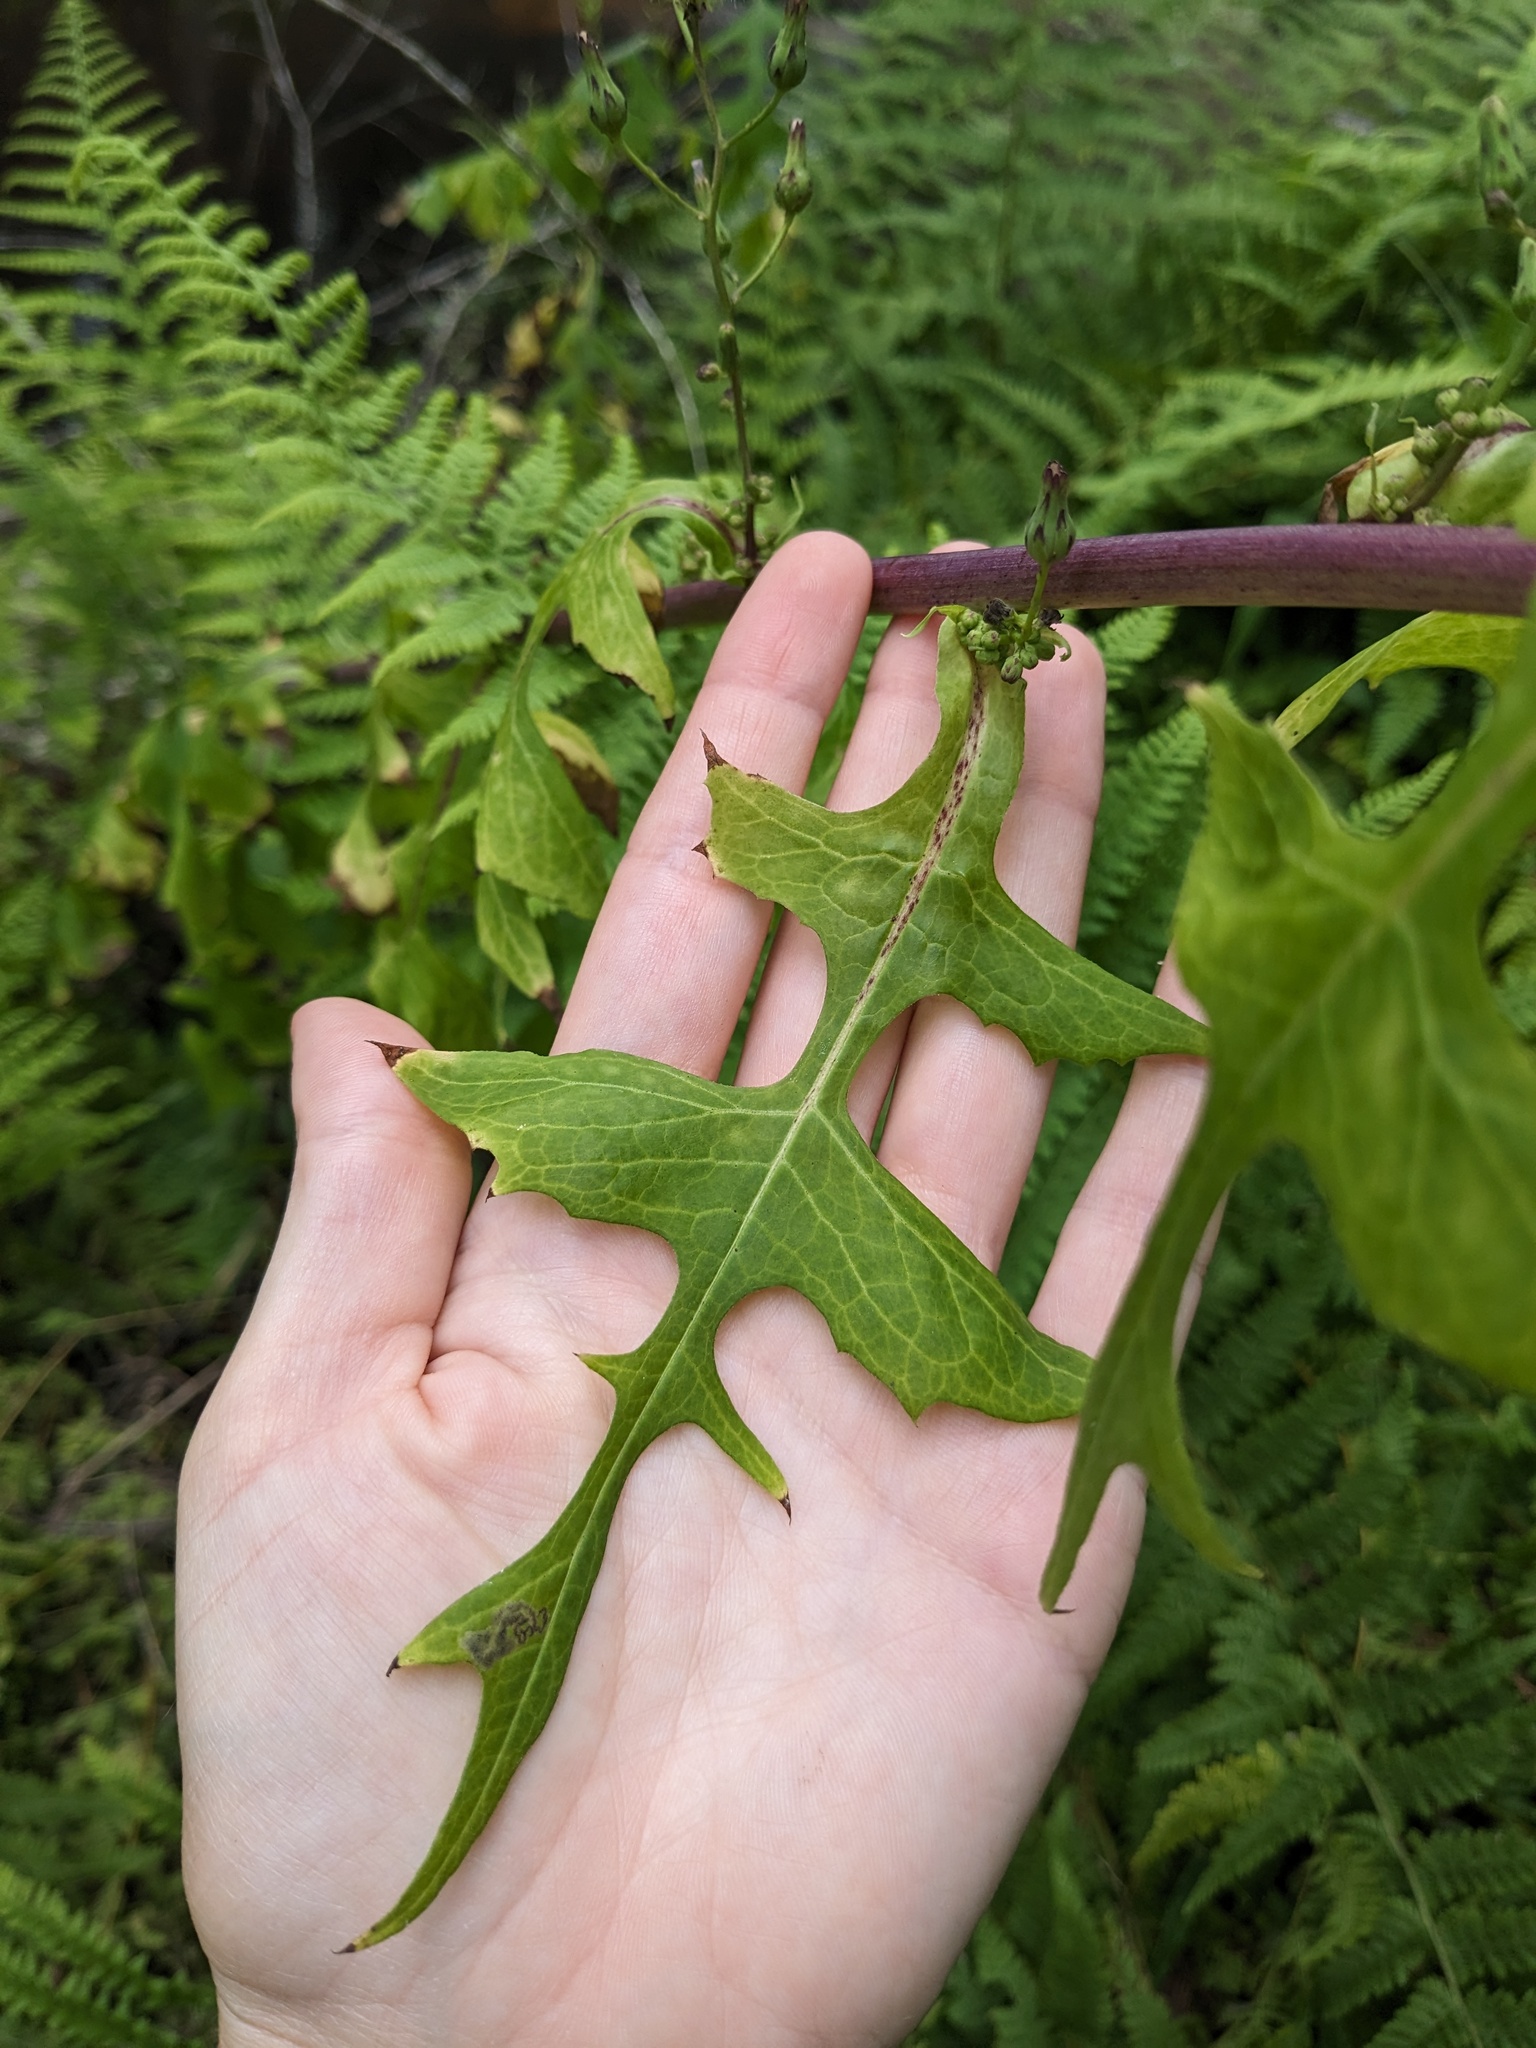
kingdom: Plantae
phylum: Tracheophyta
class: Magnoliopsida
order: Asterales
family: Asteraceae
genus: Lactuca
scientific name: Lactuca biennis
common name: Blue wood lettuce
